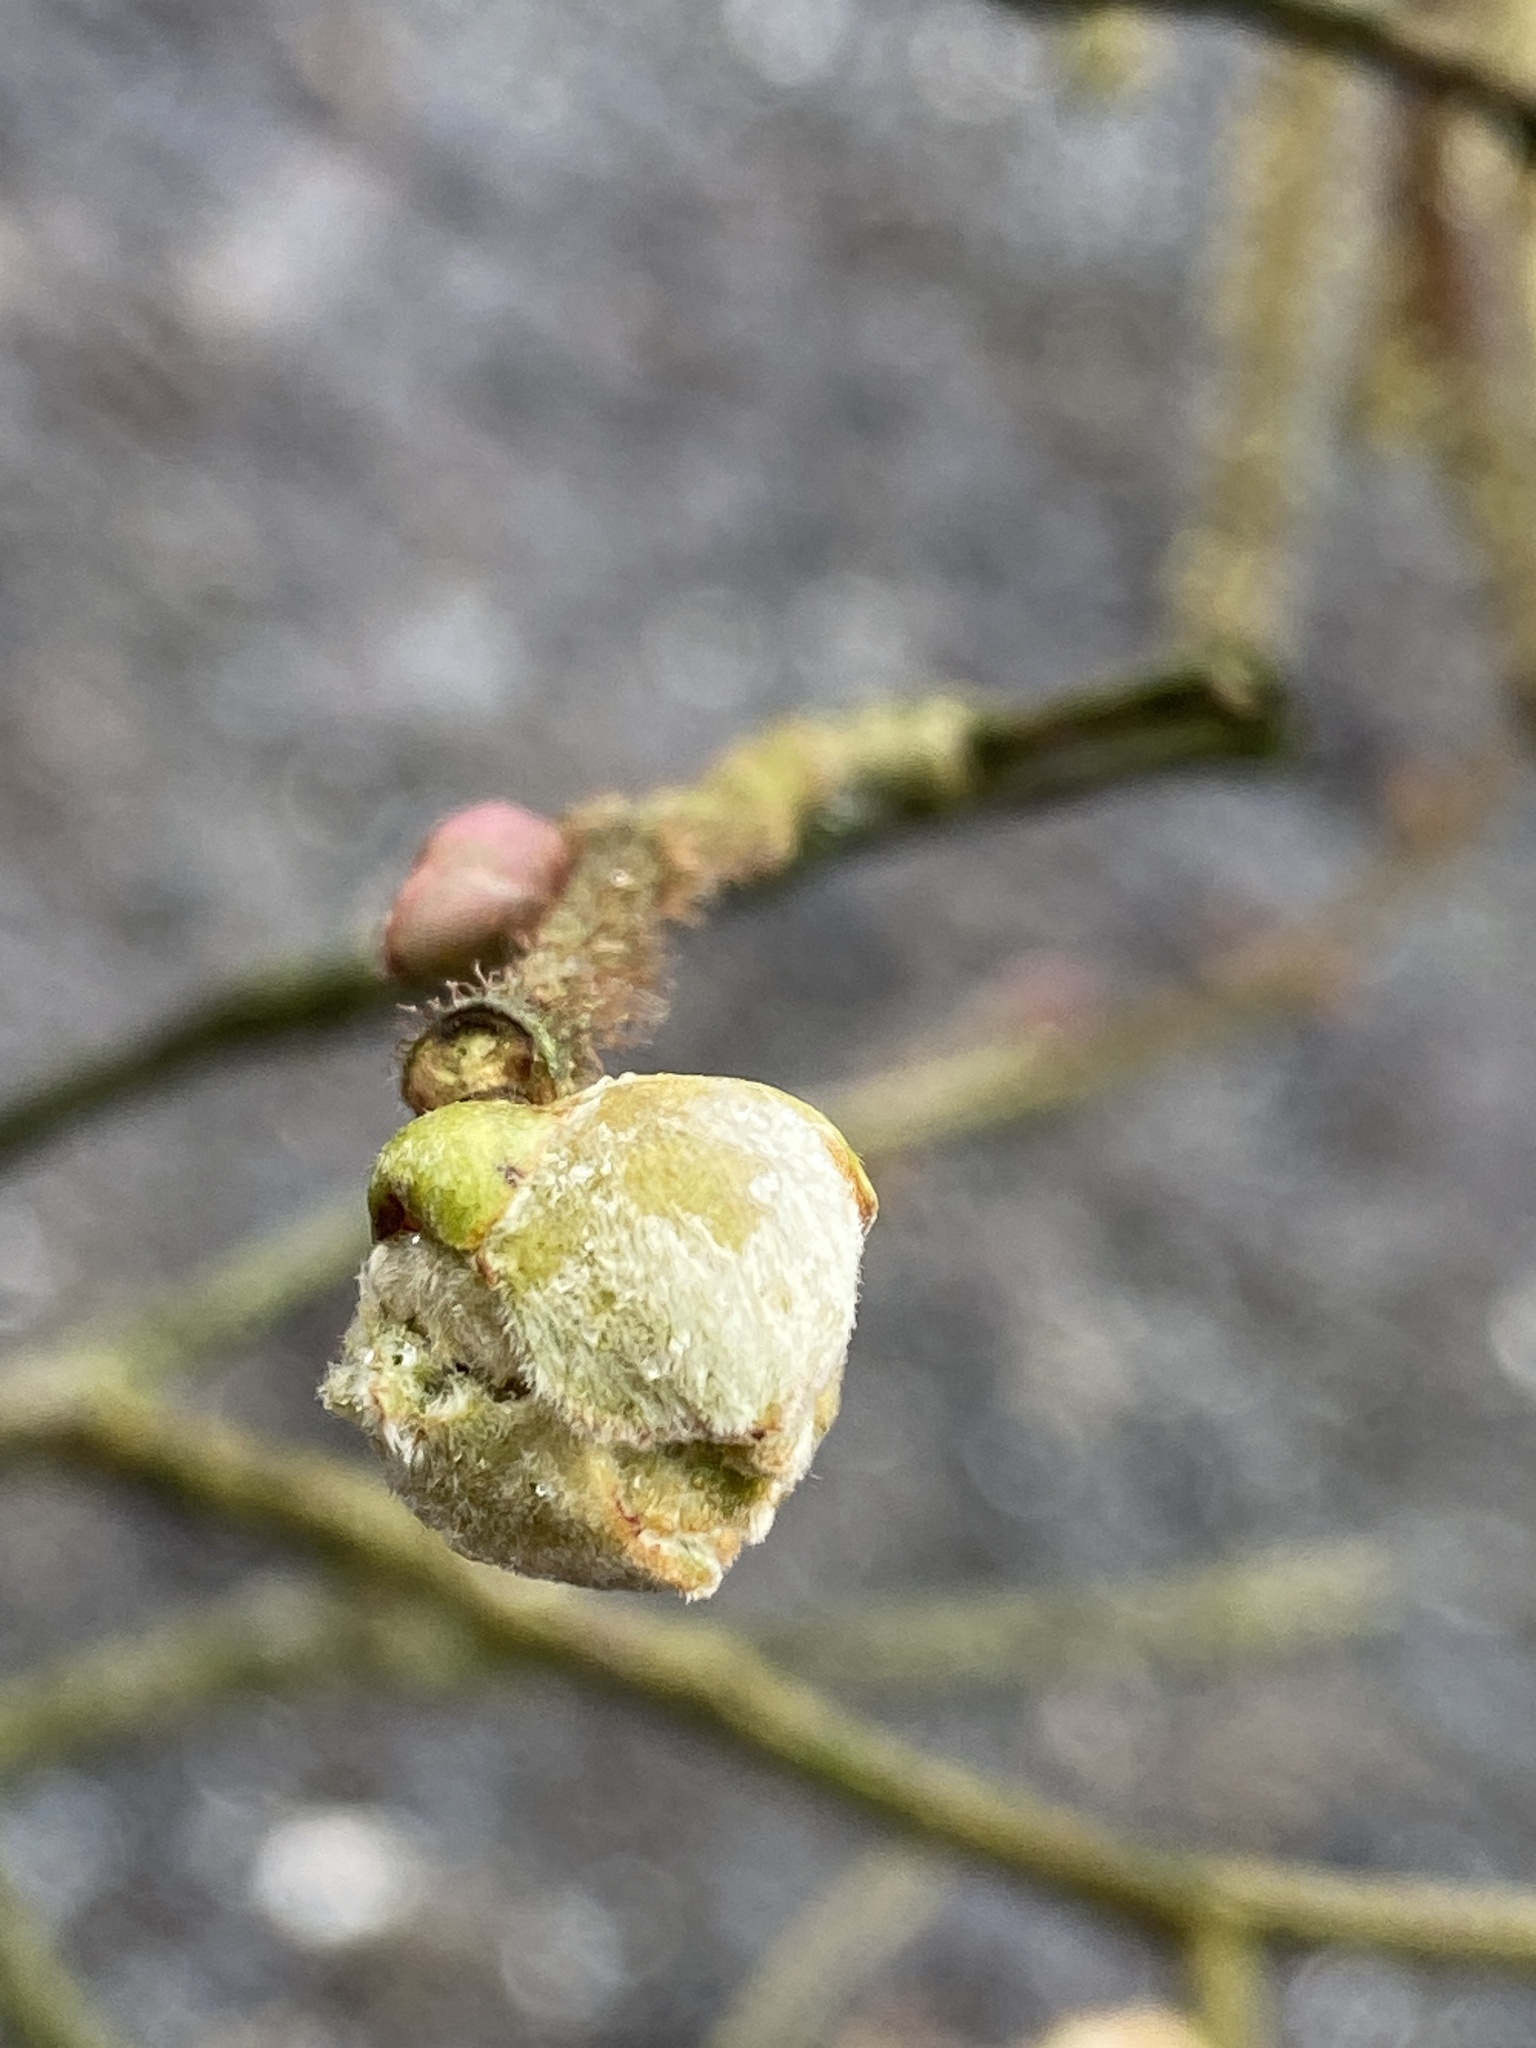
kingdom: Animalia
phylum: Arthropoda
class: Arachnida
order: Trombidiformes
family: Phytoptidae
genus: Phytoptus
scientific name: Phytoptus avellanae
